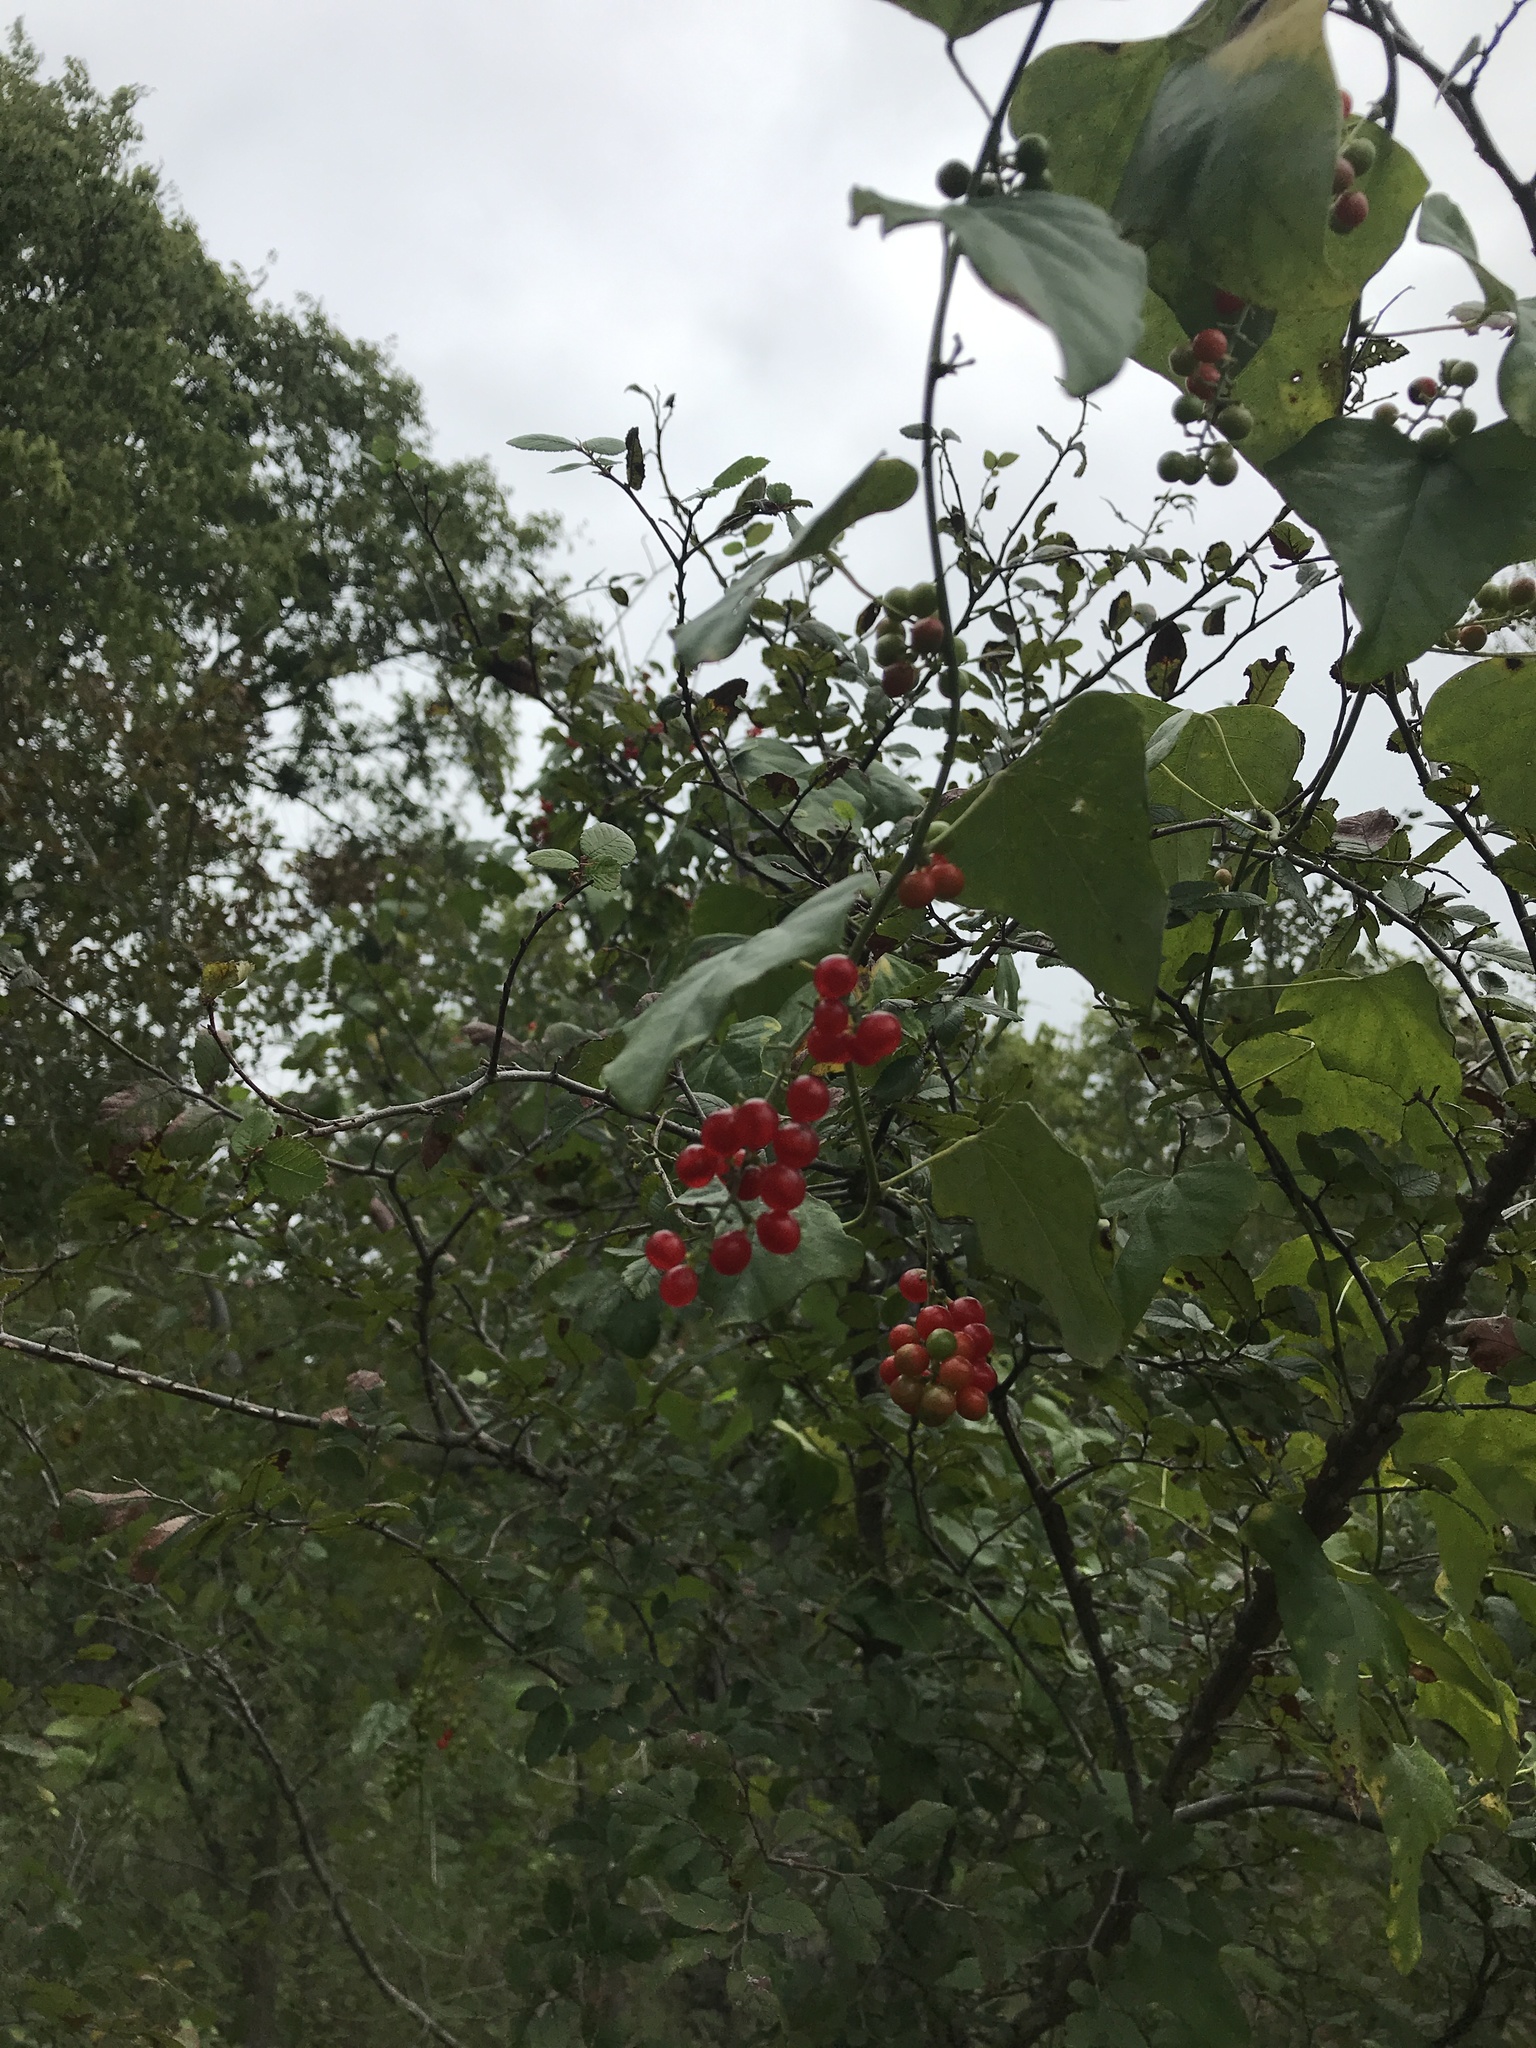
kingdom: Plantae
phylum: Tracheophyta
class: Magnoliopsida
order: Ranunculales
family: Menispermaceae
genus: Cocculus
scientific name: Cocculus carolinus
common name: Carolina moonseed
